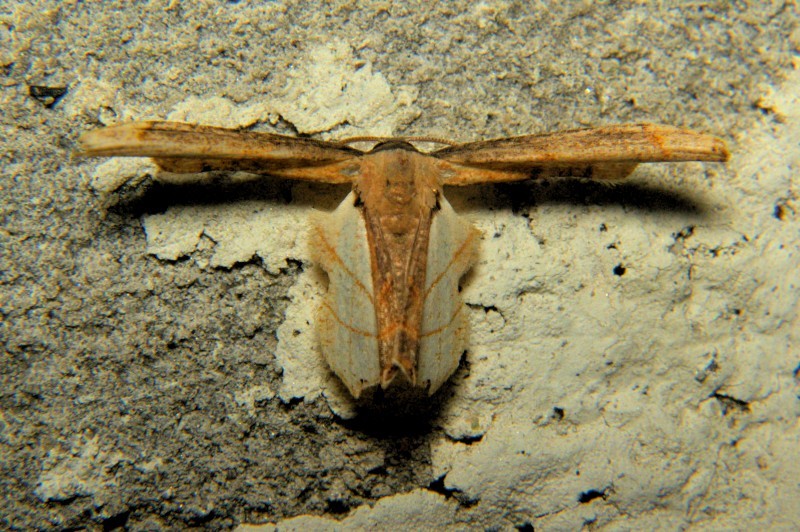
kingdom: Animalia
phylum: Arthropoda
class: Insecta
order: Lepidoptera
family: Uraniidae
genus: Warreniplema
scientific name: Warreniplema fumicosta
